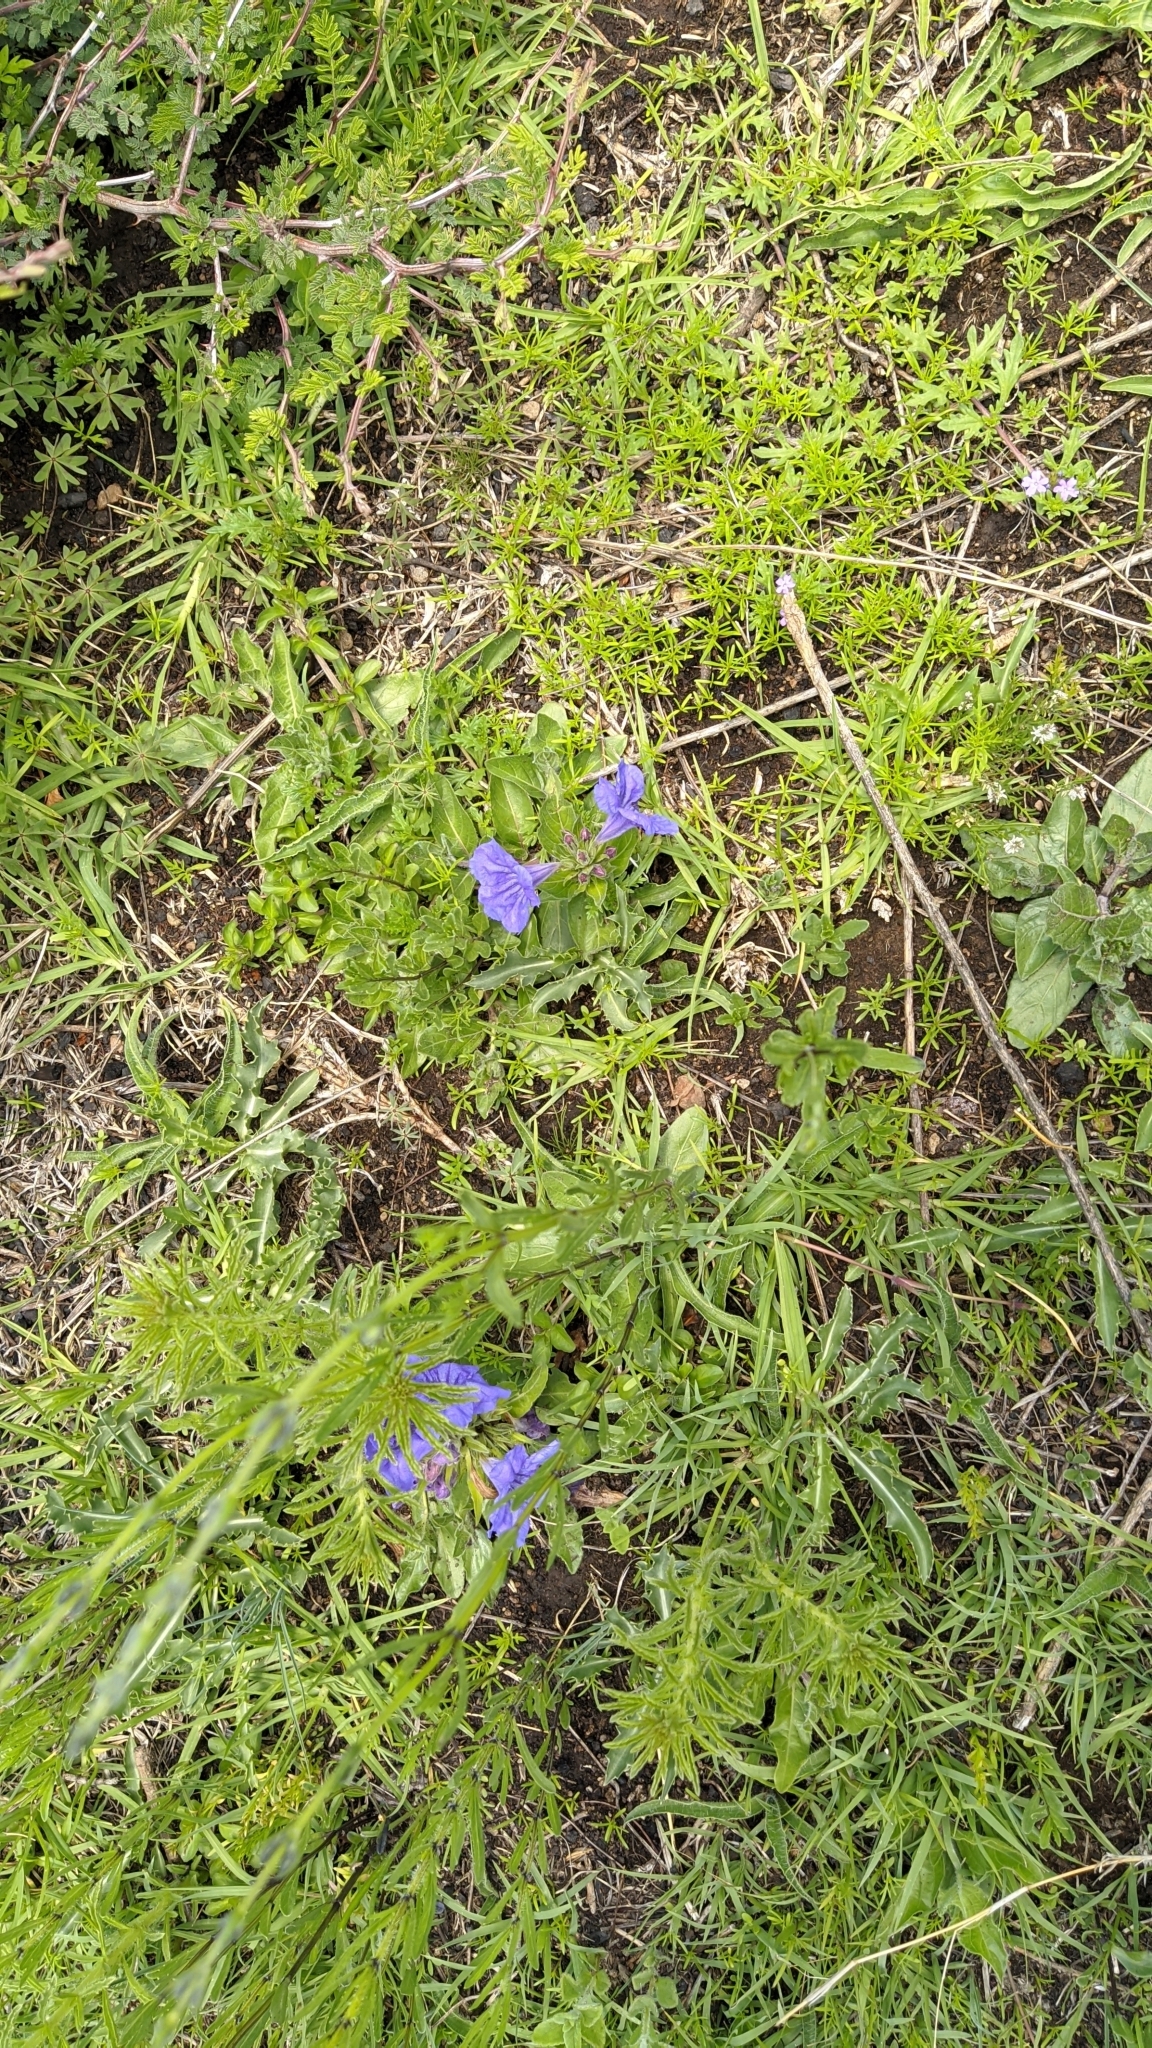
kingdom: Plantae
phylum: Tracheophyta
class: Magnoliopsida
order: Lamiales
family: Acanthaceae
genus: Ruellia
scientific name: Ruellia lactea
